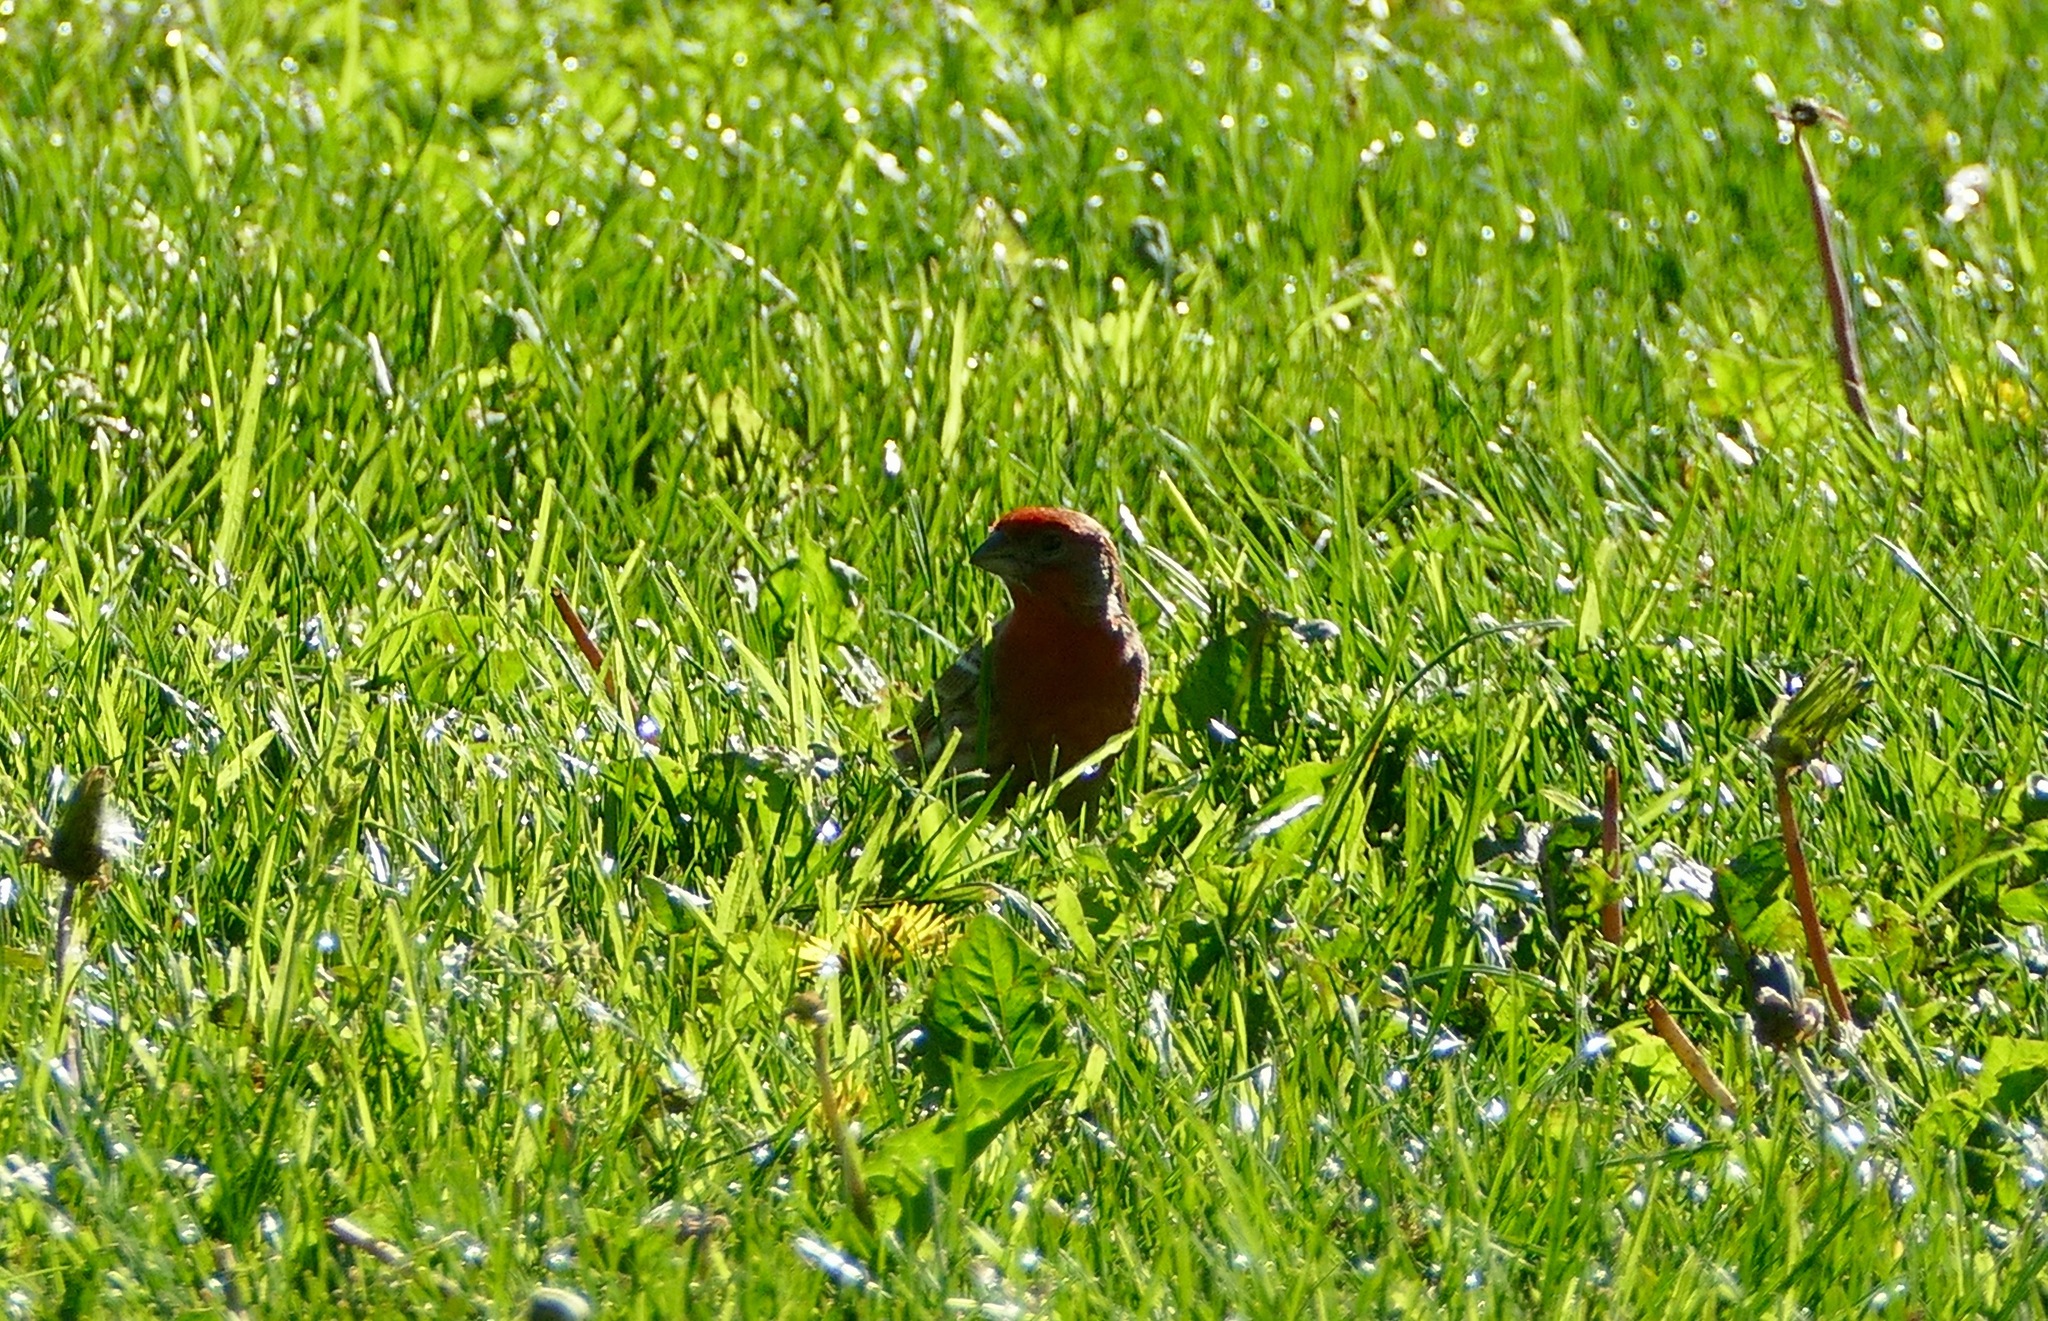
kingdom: Animalia
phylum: Chordata
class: Aves
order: Passeriformes
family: Fringillidae
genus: Haemorhous
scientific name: Haemorhous mexicanus
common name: House finch
